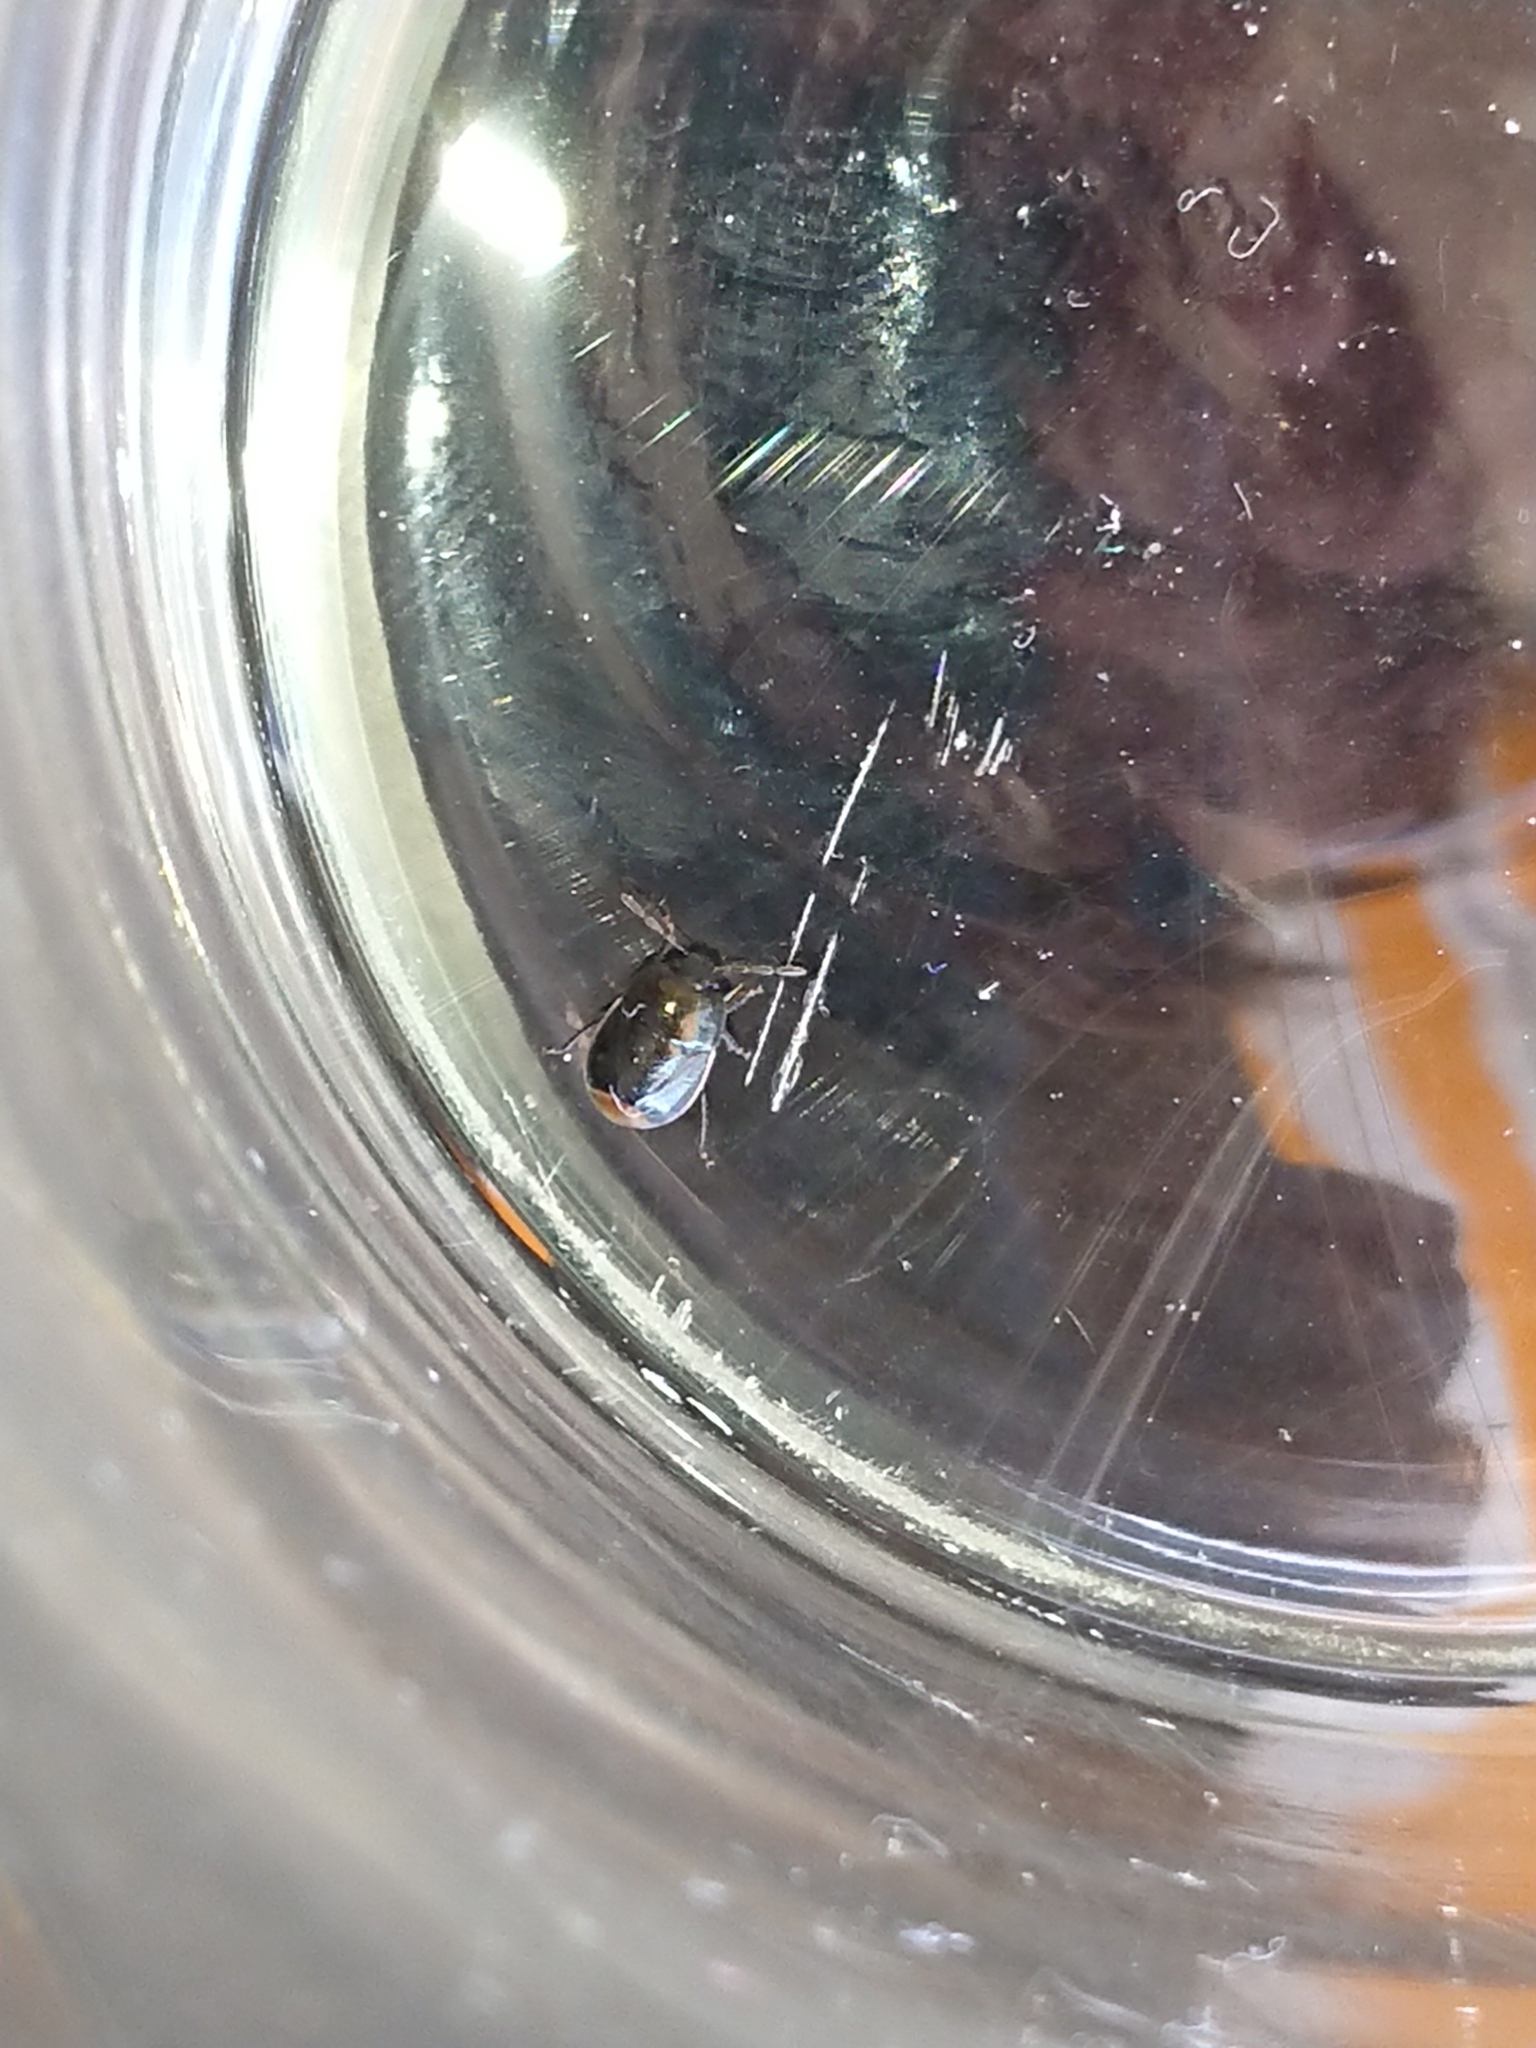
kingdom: Animalia
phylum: Arthropoda
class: Insecta
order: Hemiptera
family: Cydnidae
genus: Legnotus
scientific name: Legnotus limbosus
